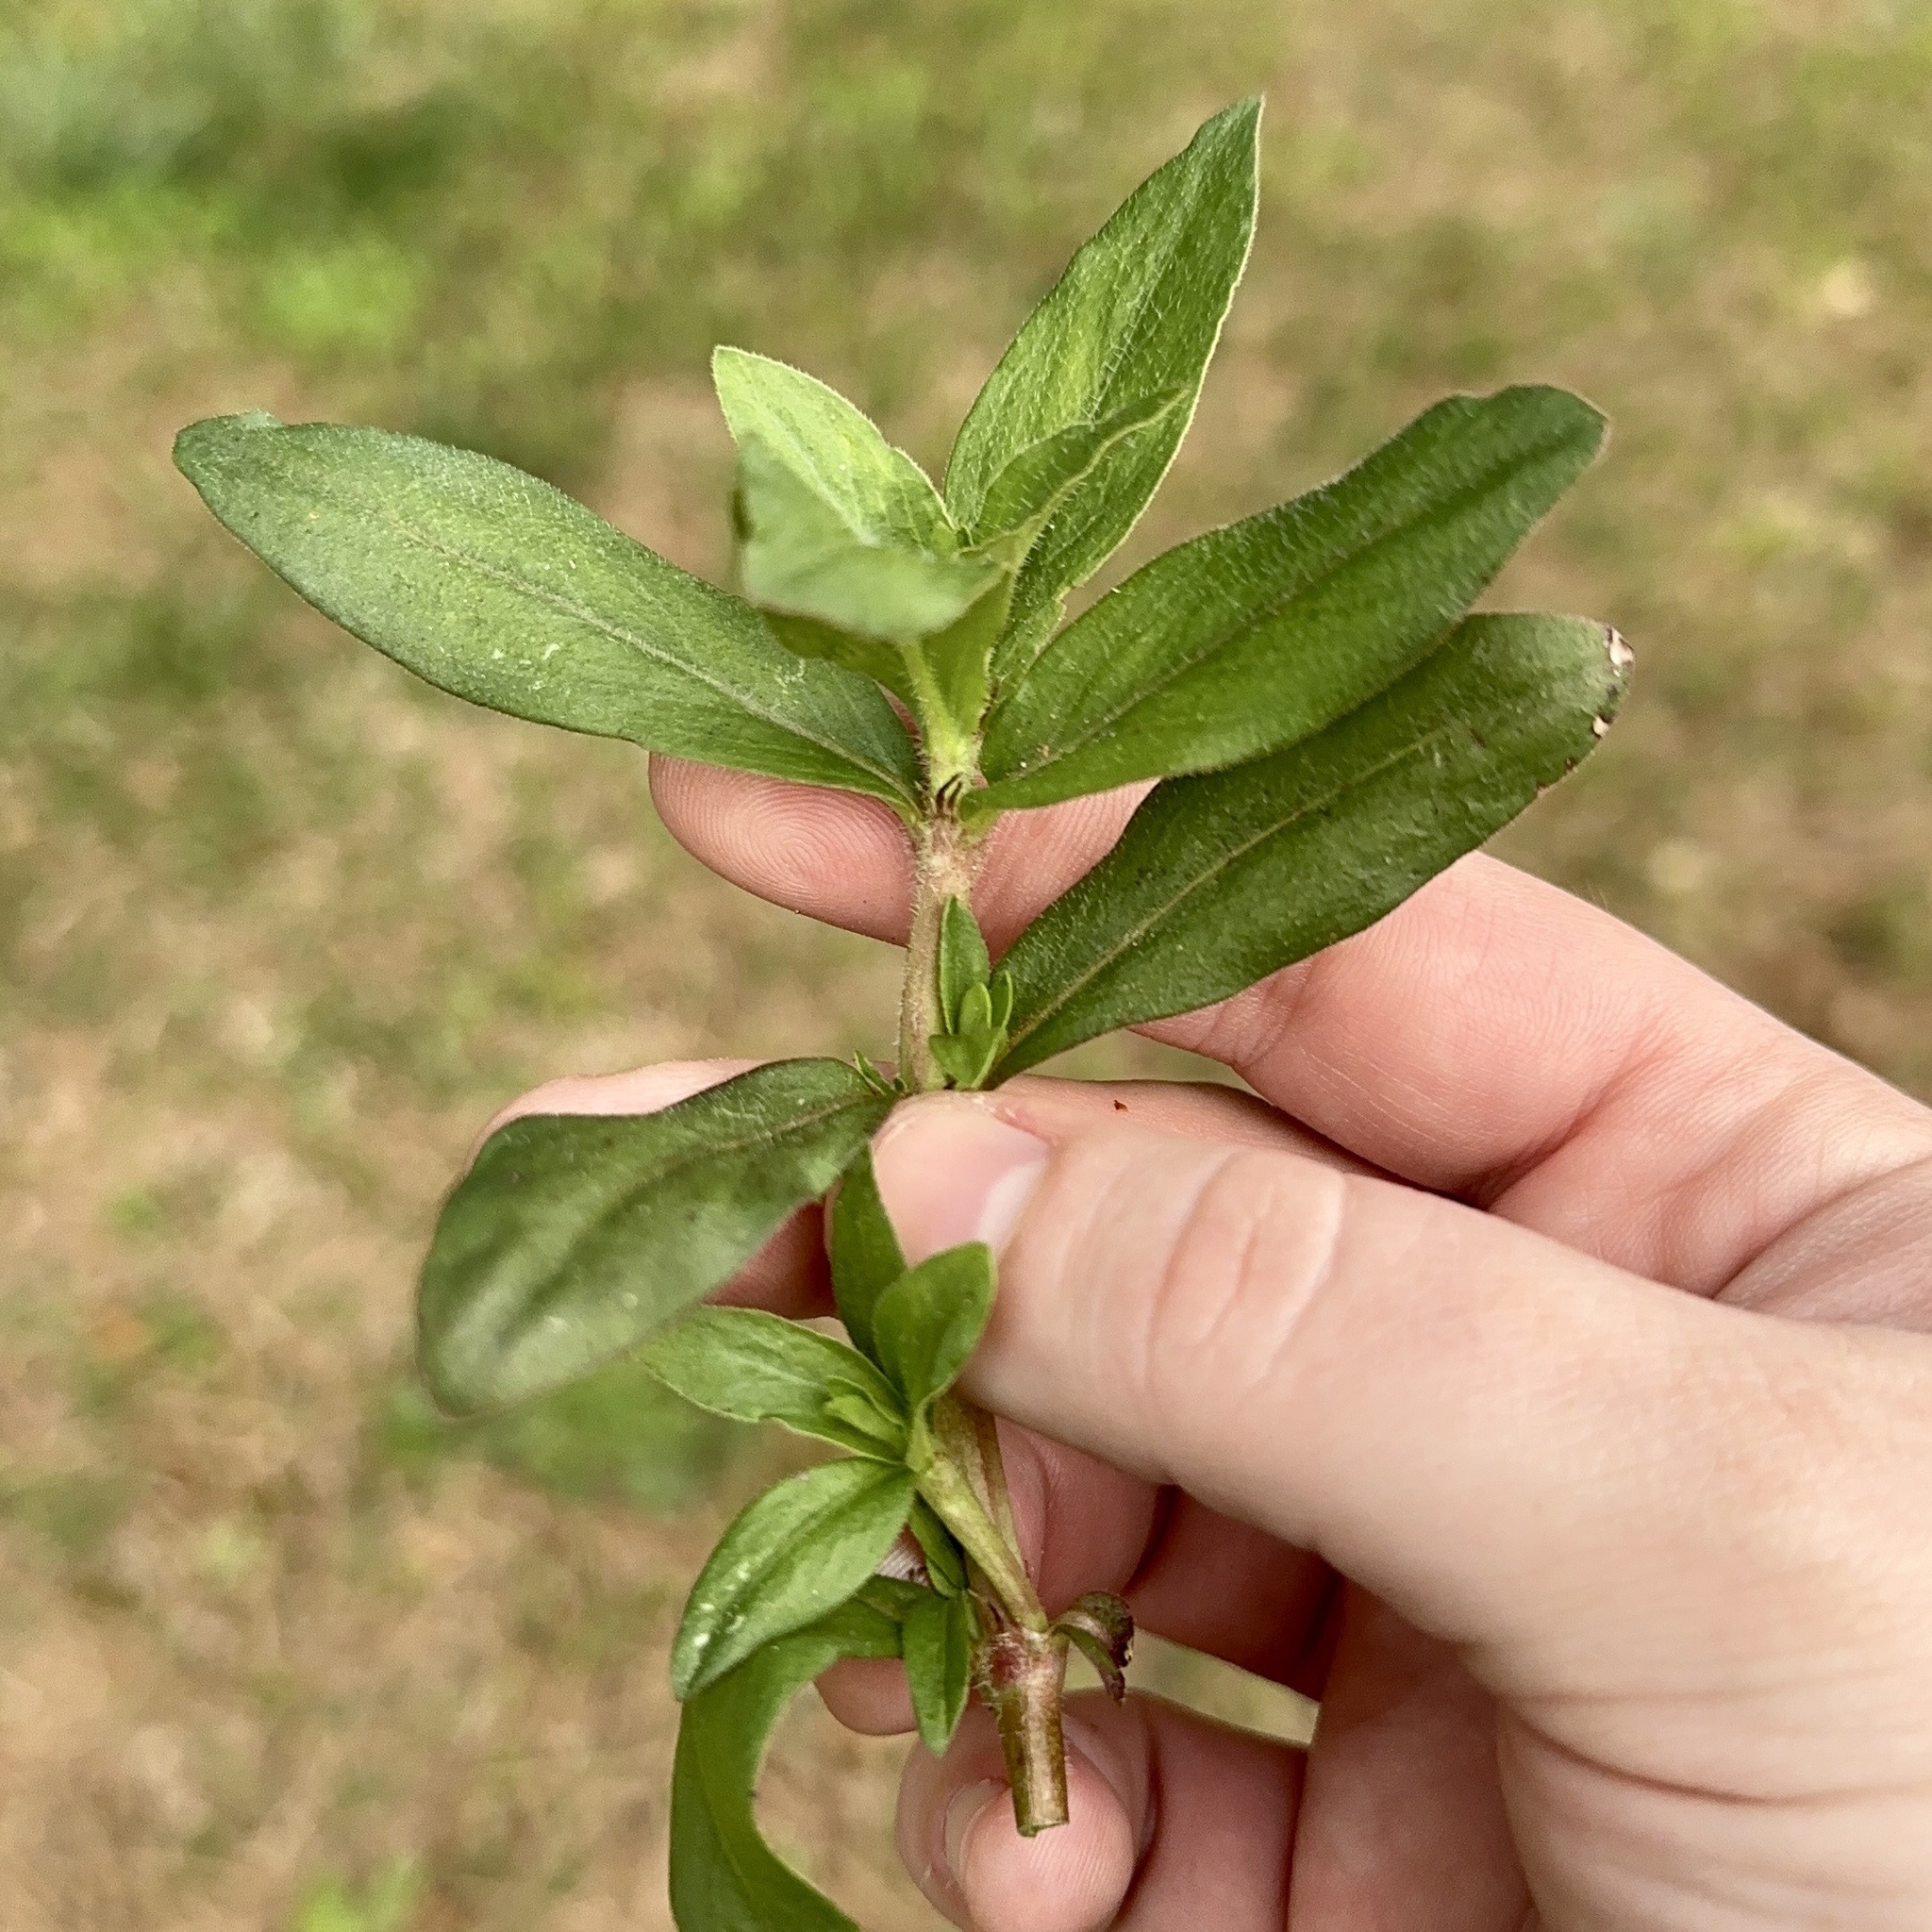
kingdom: Plantae
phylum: Tracheophyta
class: Magnoliopsida
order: Gentianales
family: Rubiaceae
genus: Diodia
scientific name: Diodia virginiana
